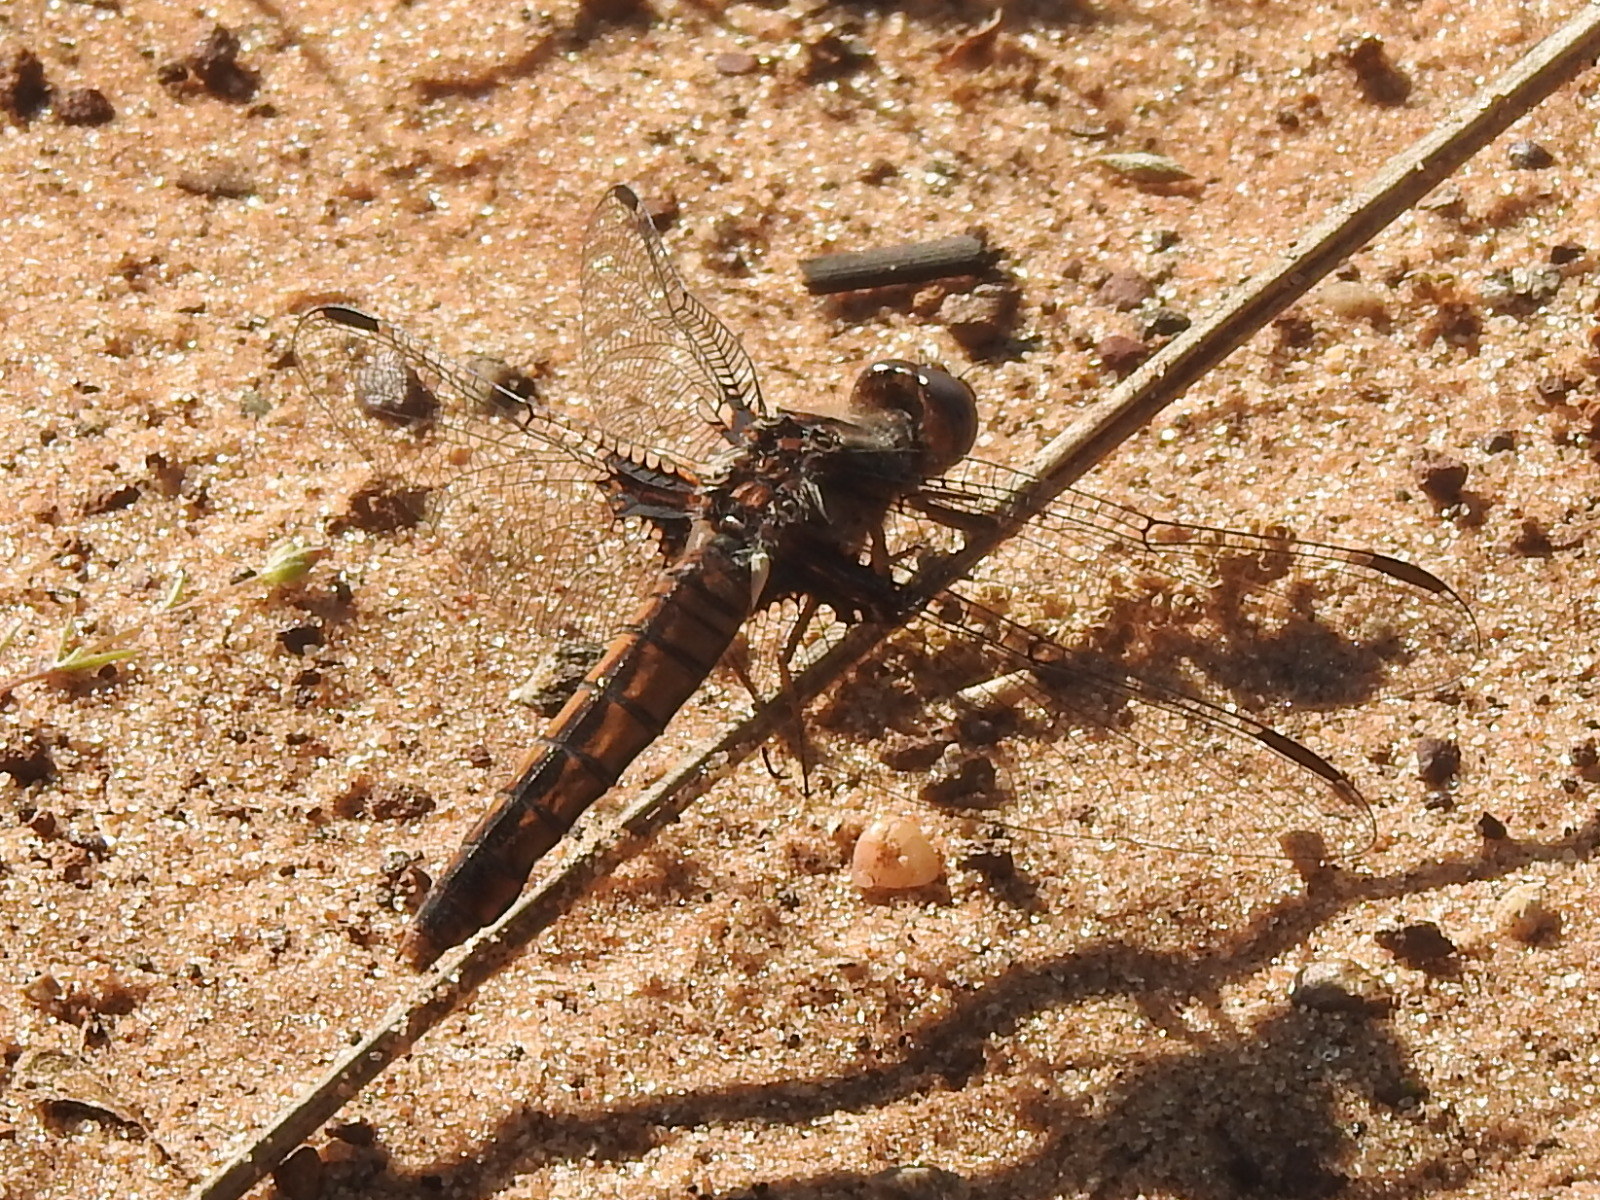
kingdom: Animalia
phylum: Arthropoda
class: Insecta
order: Odonata
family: Libellulidae
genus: Ladona
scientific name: Ladona deplanata
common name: Blue corporal
